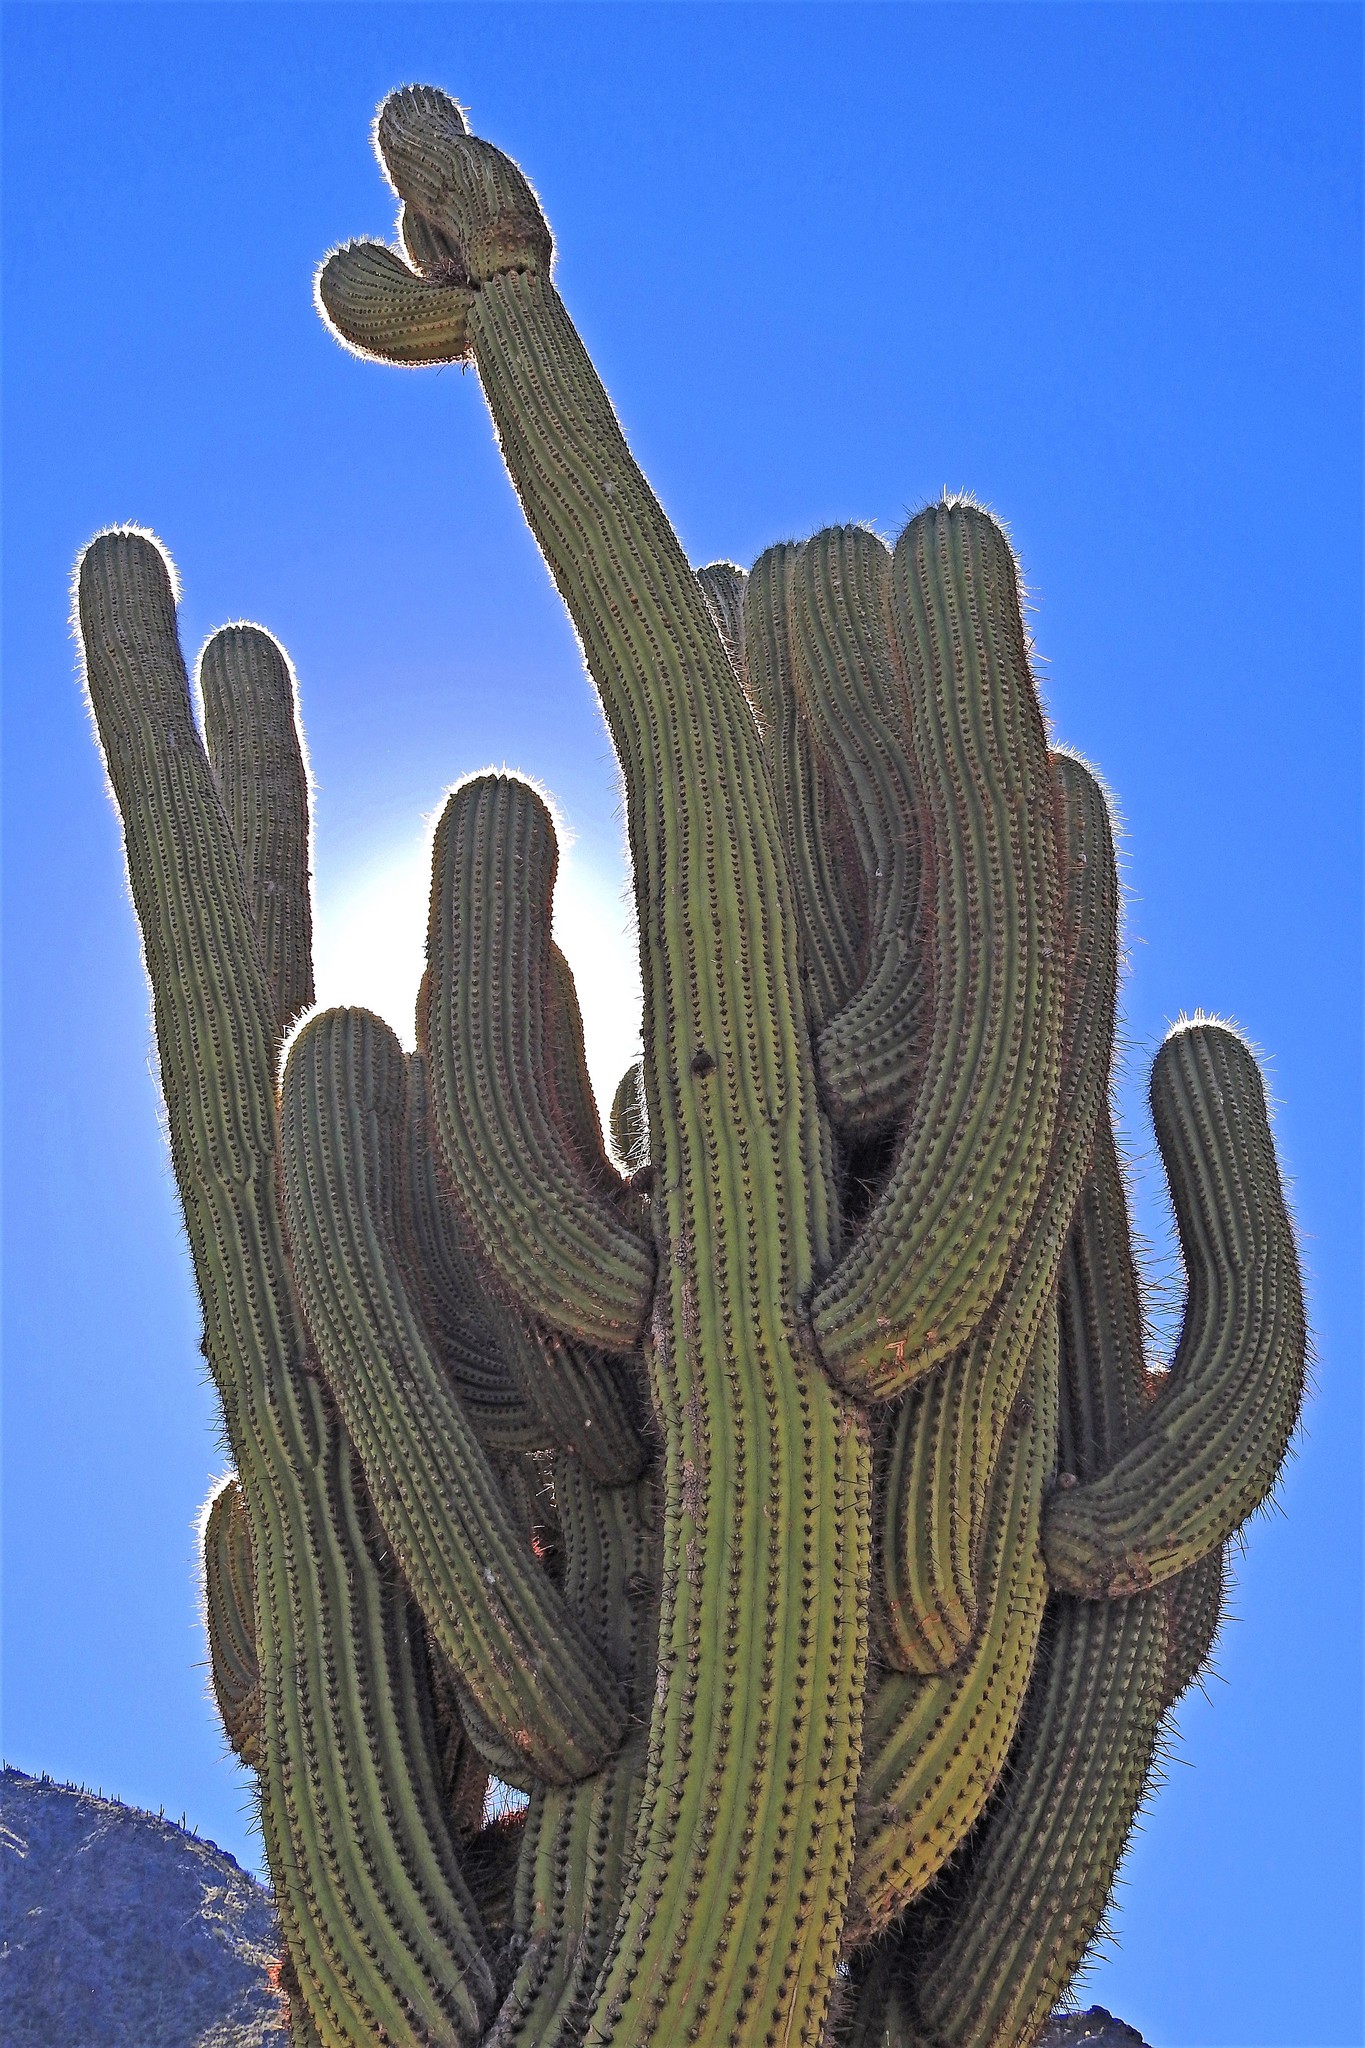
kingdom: Plantae
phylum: Tracheophyta
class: Magnoliopsida
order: Caryophyllales
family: Cactaceae
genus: Leucostele
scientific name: Leucostele terscheckii
